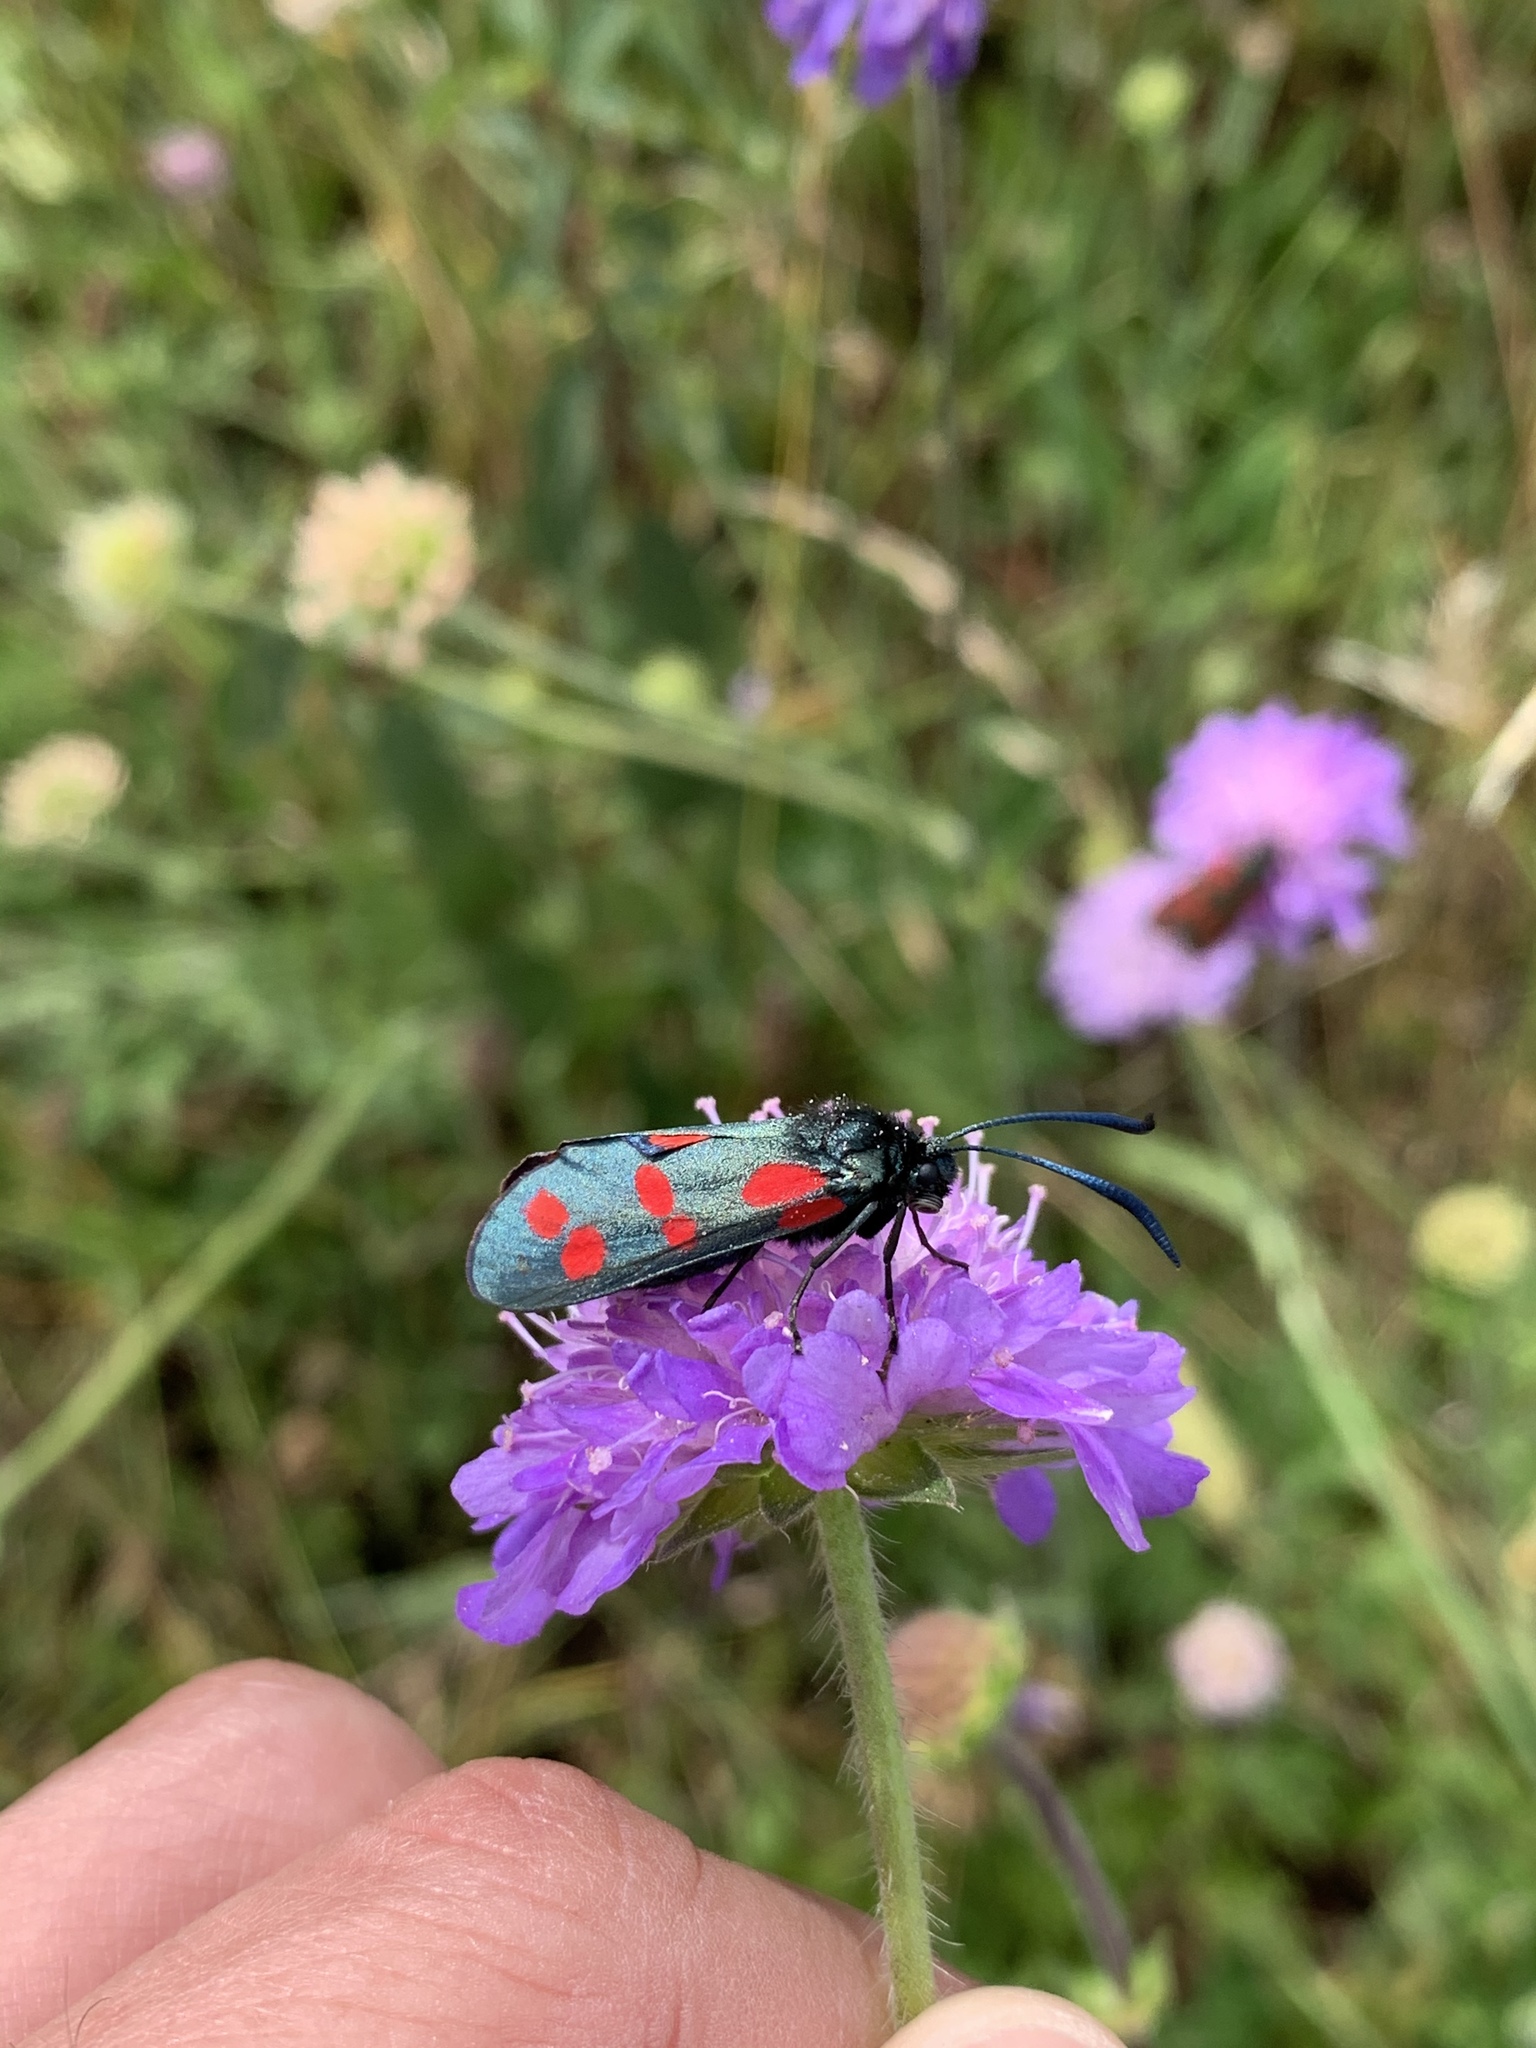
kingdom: Animalia
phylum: Arthropoda
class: Insecta
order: Lepidoptera
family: Zygaenidae
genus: Zygaena
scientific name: Zygaena filipendulae
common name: Six-spot burnet
